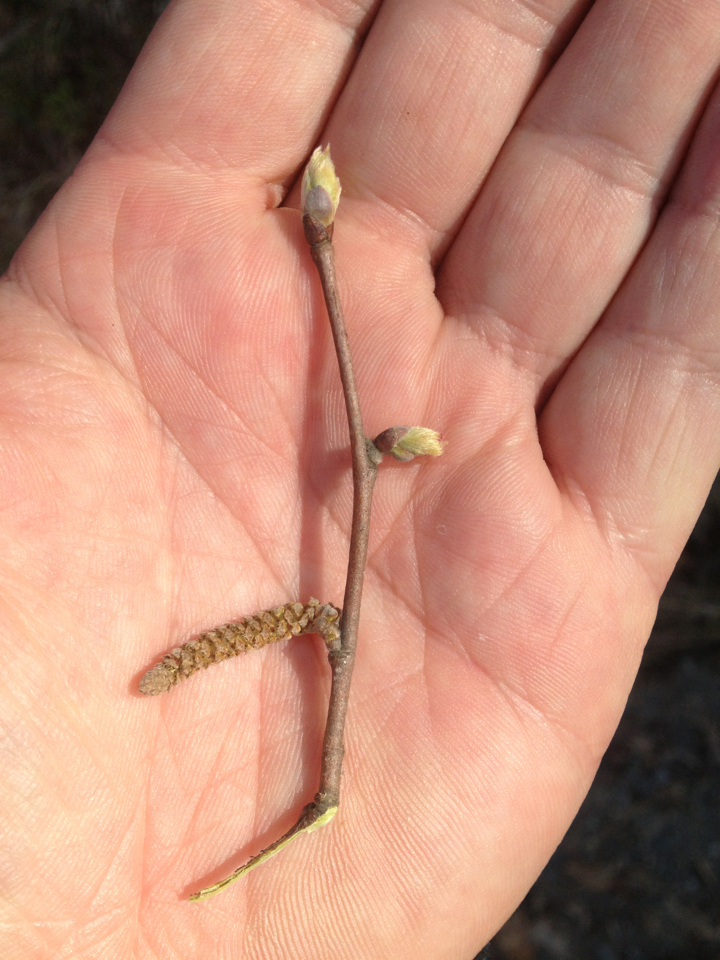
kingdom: Plantae
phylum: Tracheophyta
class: Magnoliopsida
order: Fagales
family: Betulaceae
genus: Corylus
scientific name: Corylus cornuta
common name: Beaked hazel
